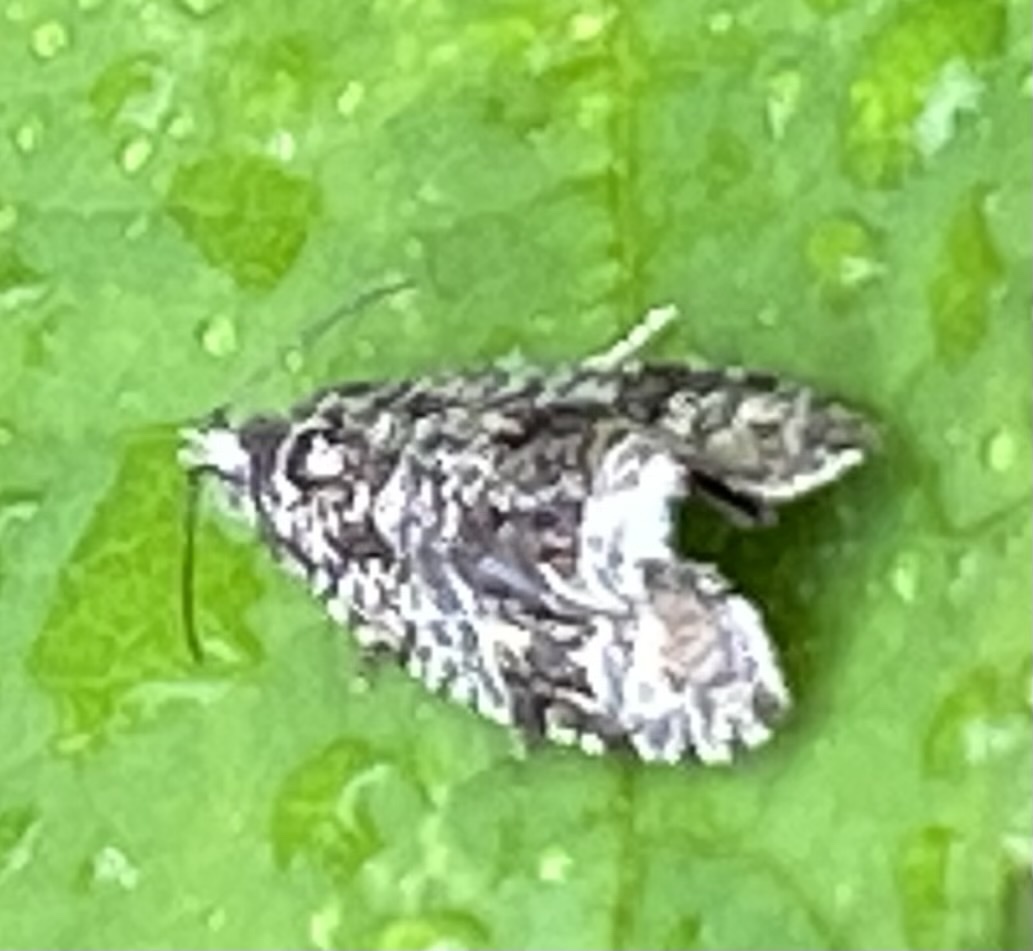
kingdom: Animalia
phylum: Arthropoda
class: Insecta
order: Lepidoptera
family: Tortricidae
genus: Syricoris
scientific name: Syricoris lacunana
